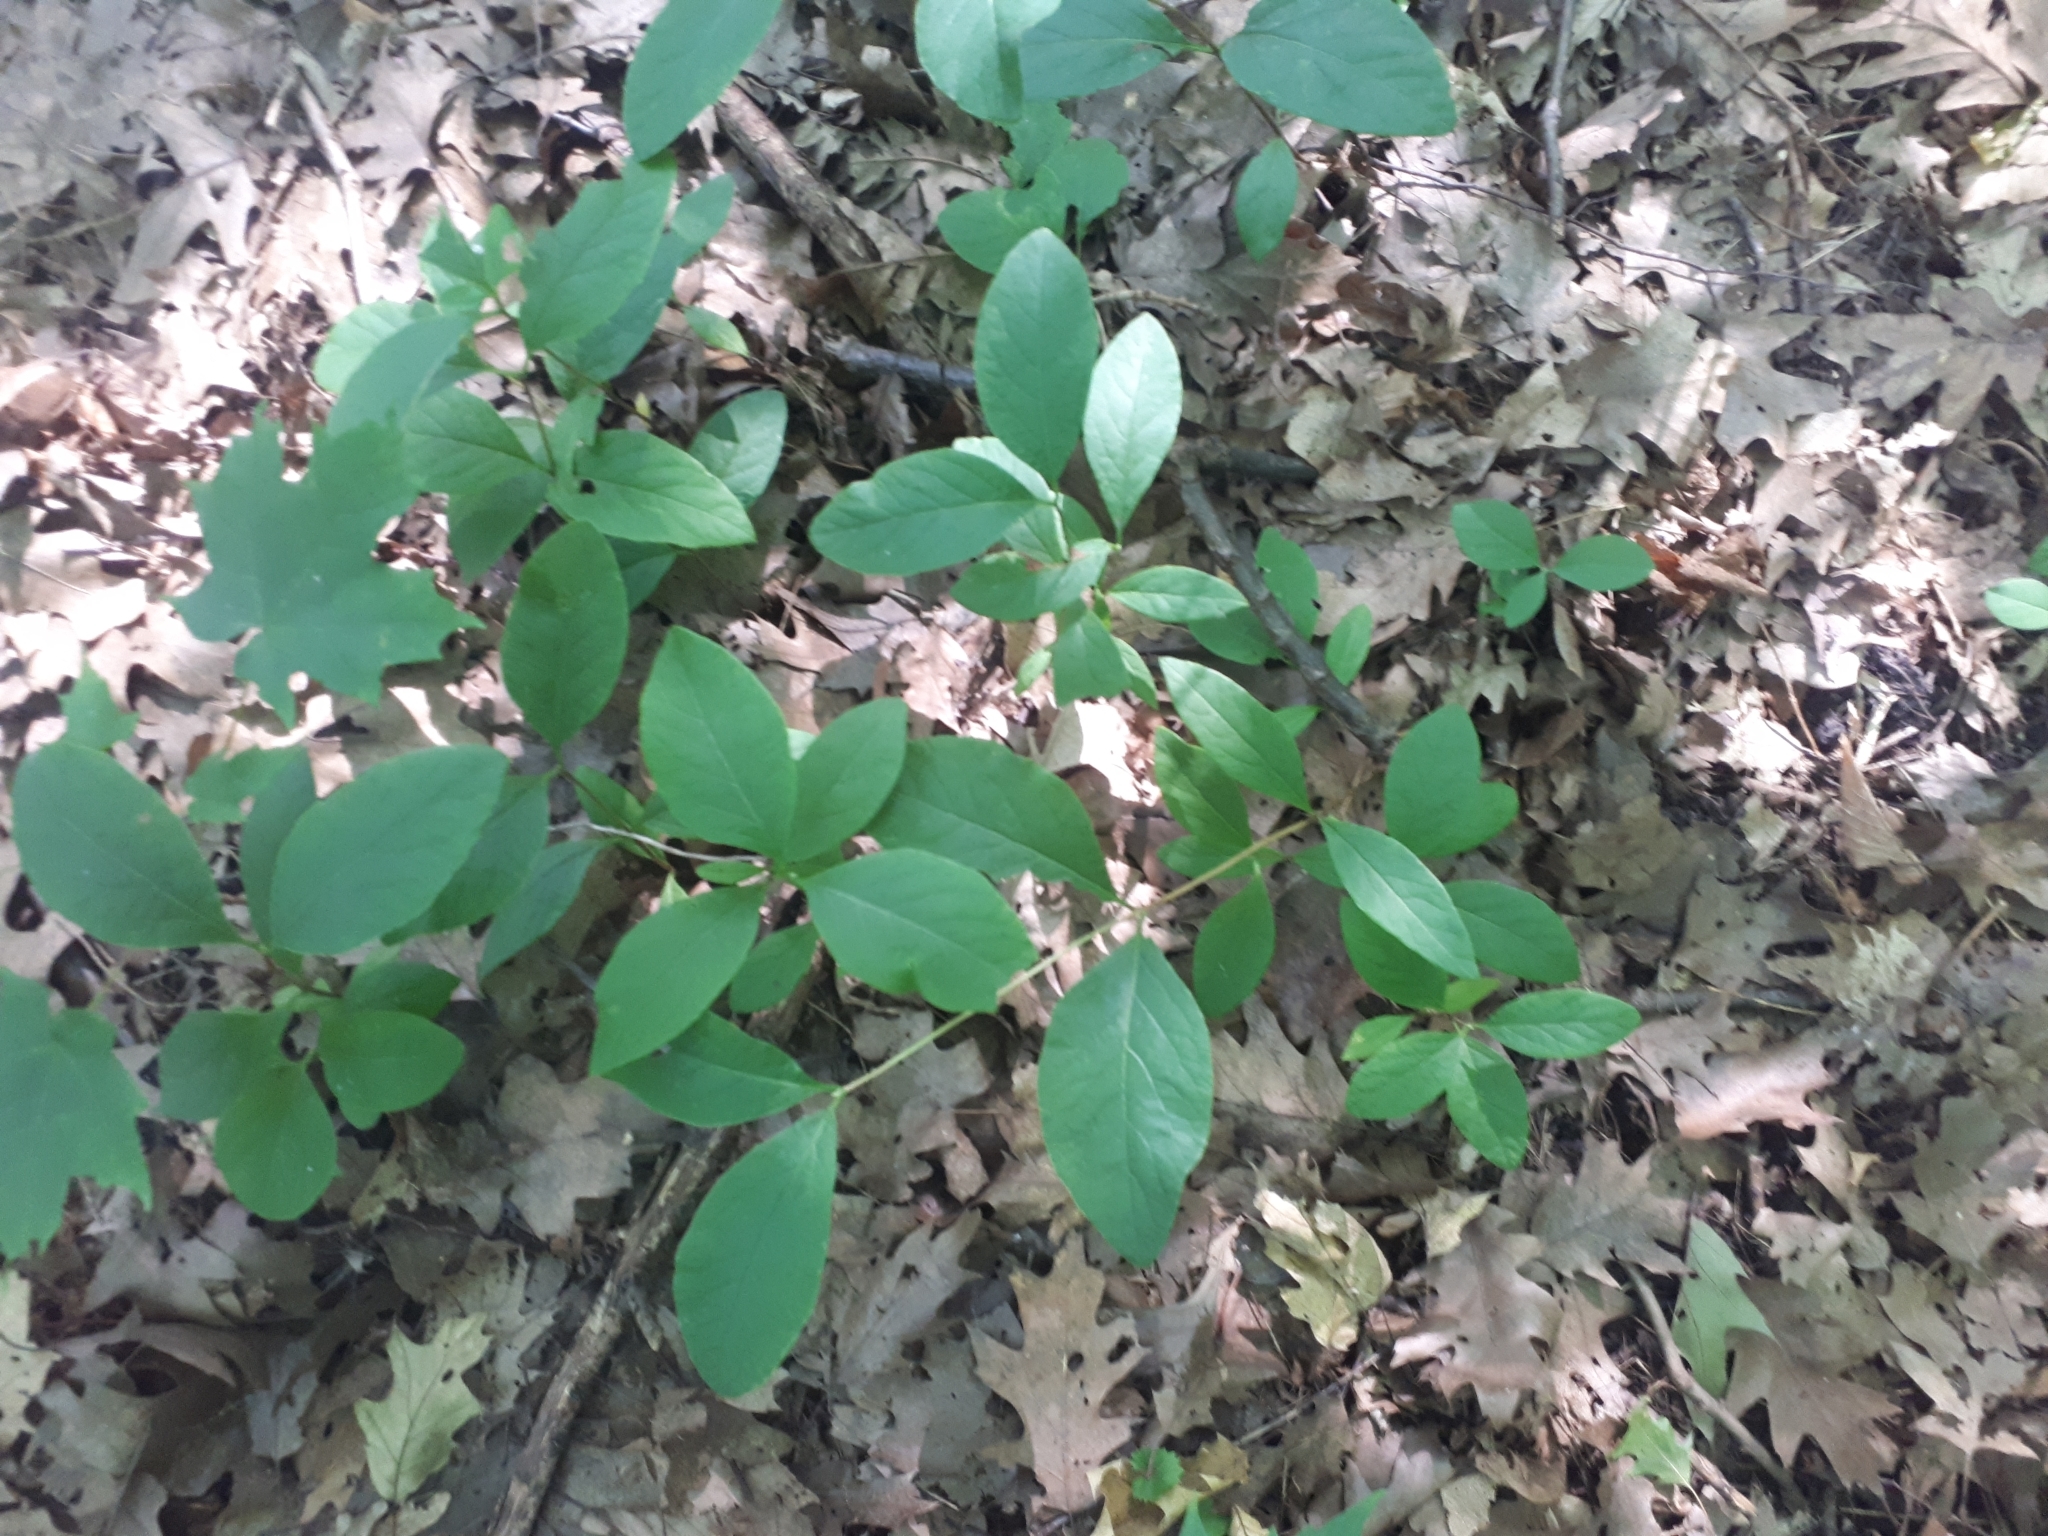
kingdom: Plantae
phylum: Tracheophyta
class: Magnoliopsida
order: Celastrales
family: Celastraceae
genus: Euonymus
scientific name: Euonymus obovatus
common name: Running strawberry-bush
